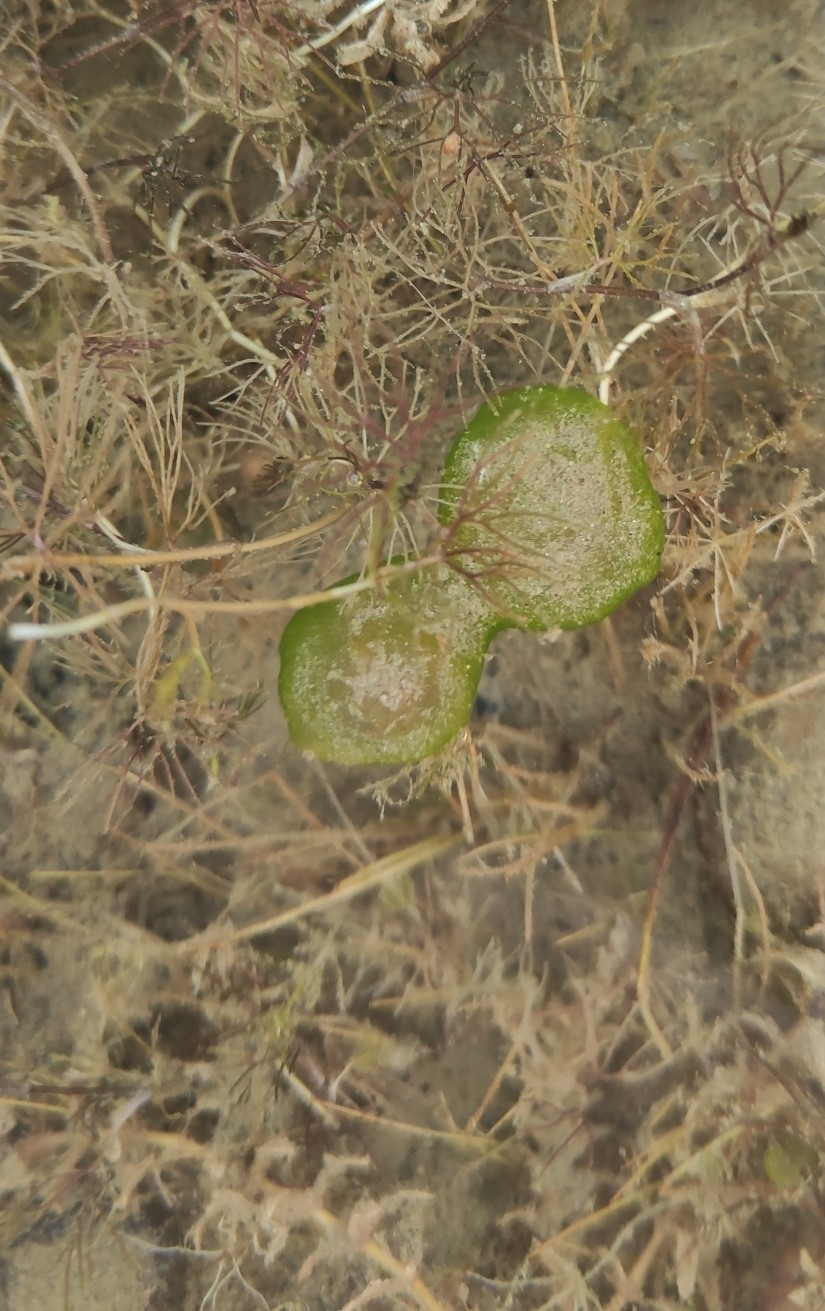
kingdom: Chromista
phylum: Ciliophora
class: Oligohymenophorea
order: Peritrichida
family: Ophrydiidae
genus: Ophrydium
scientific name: Ophrydium
